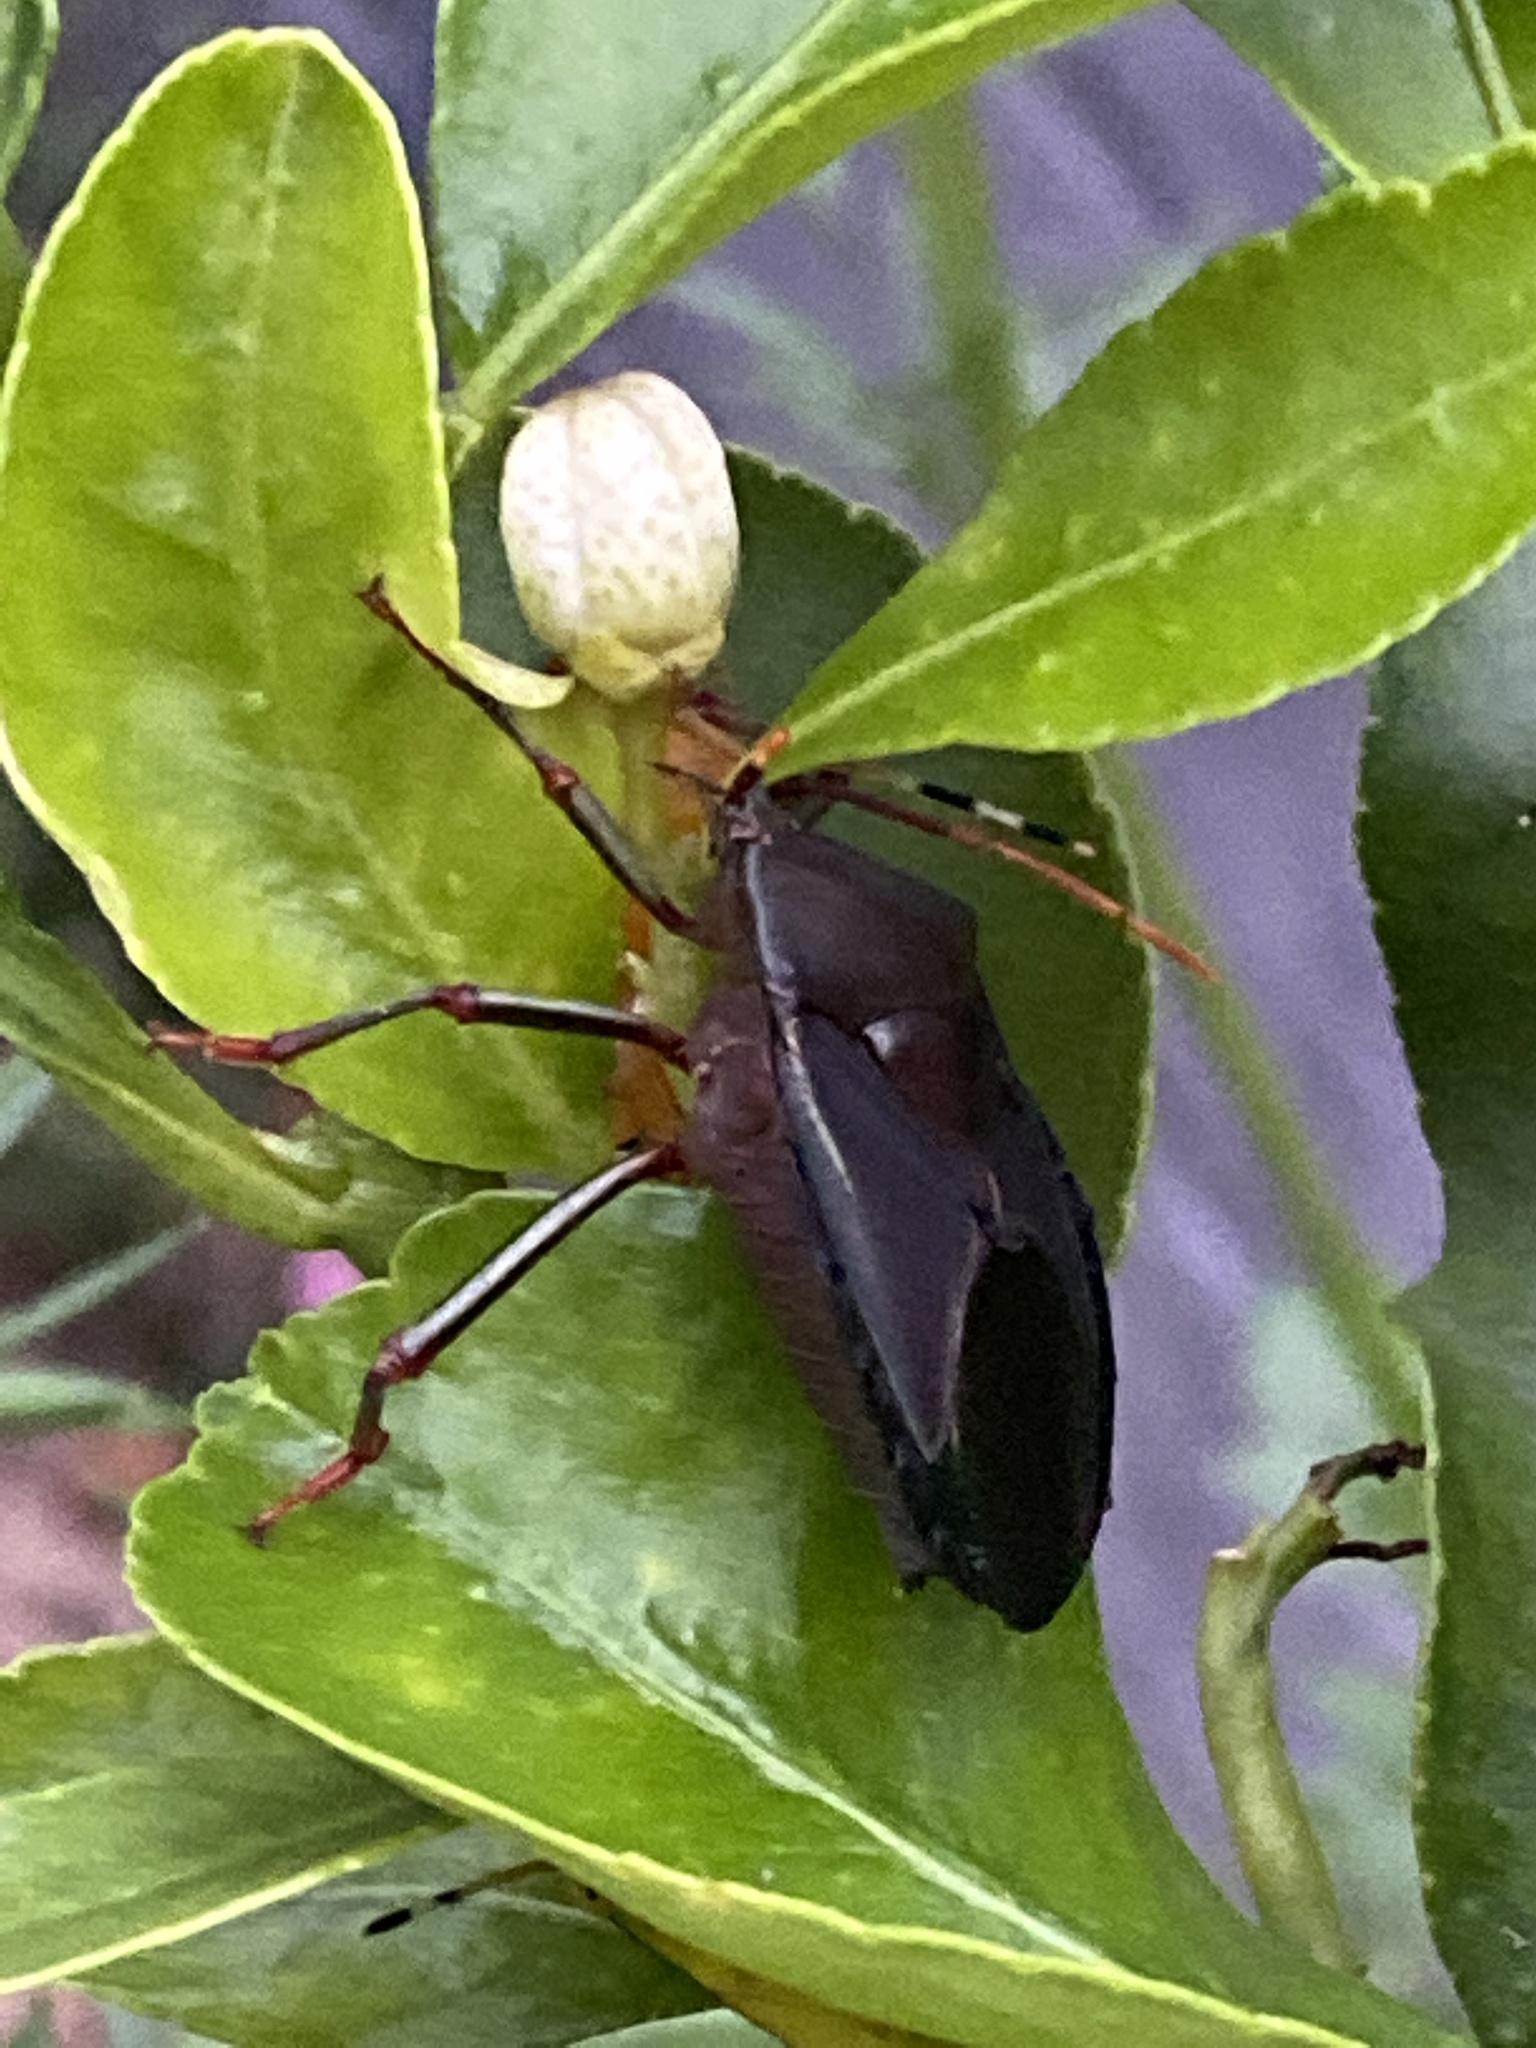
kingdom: Animalia
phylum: Arthropoda
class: Insecta
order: Hemiptera
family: Tessaratomidae
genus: Musgraveia
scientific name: Musgraveia sulciventris
